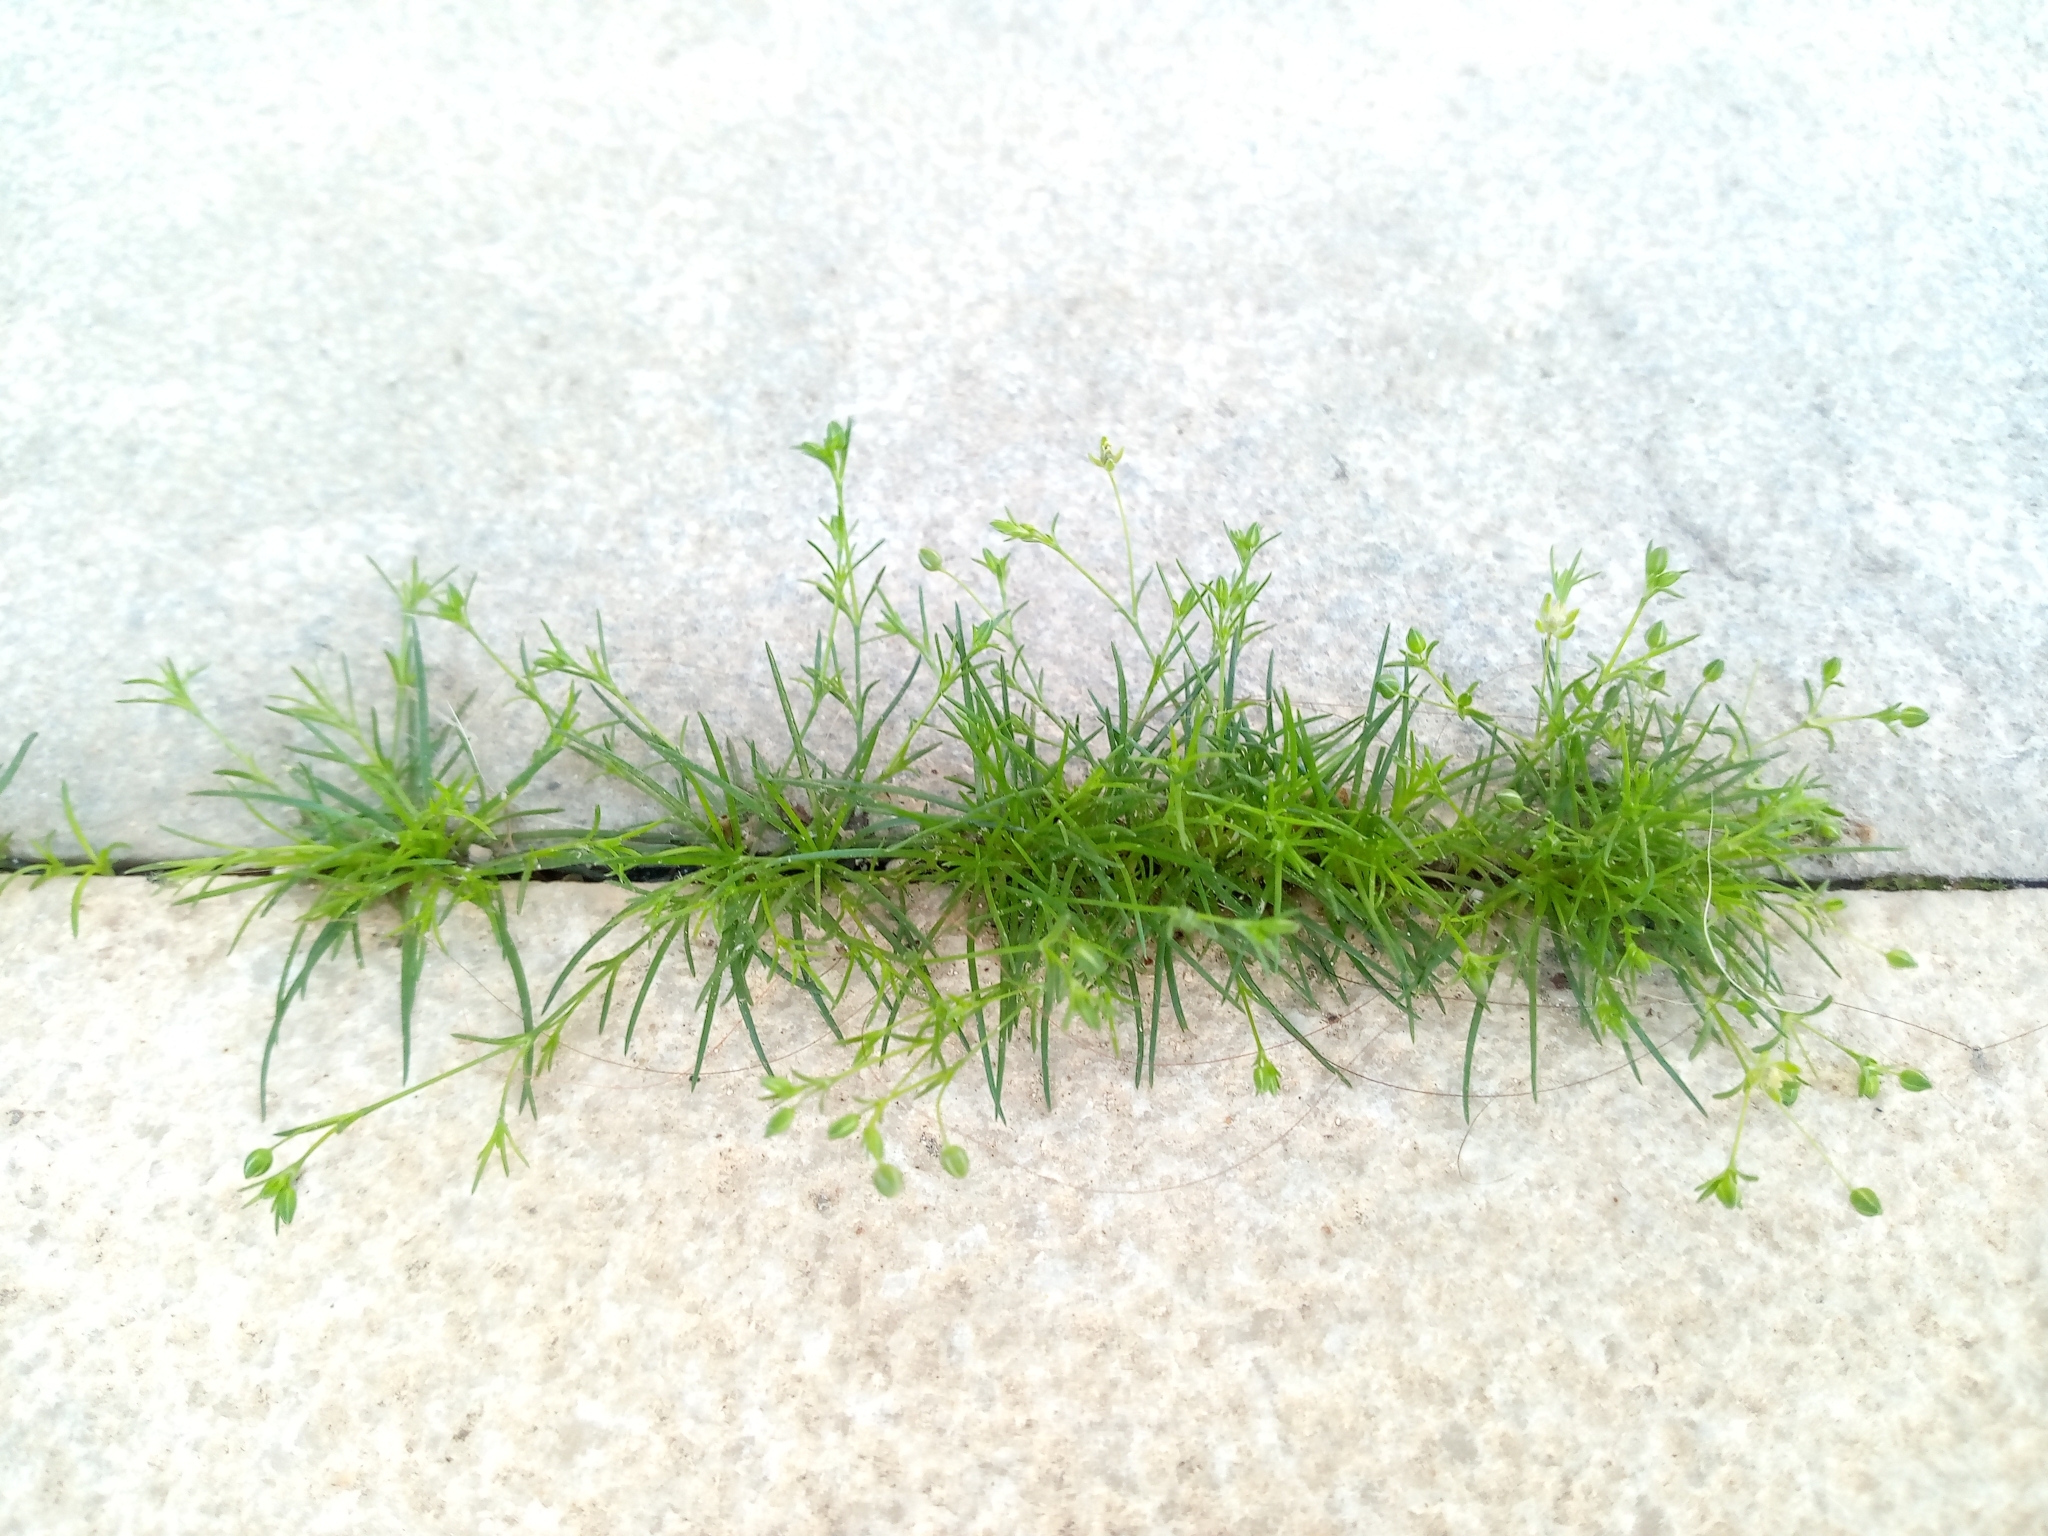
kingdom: Plantae
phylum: Tracheophyta
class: Magnoliopsida
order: Caryophyllales
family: Caryophyllaceae
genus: Sagina
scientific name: Sagina apetala
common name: Annual pearlwort
